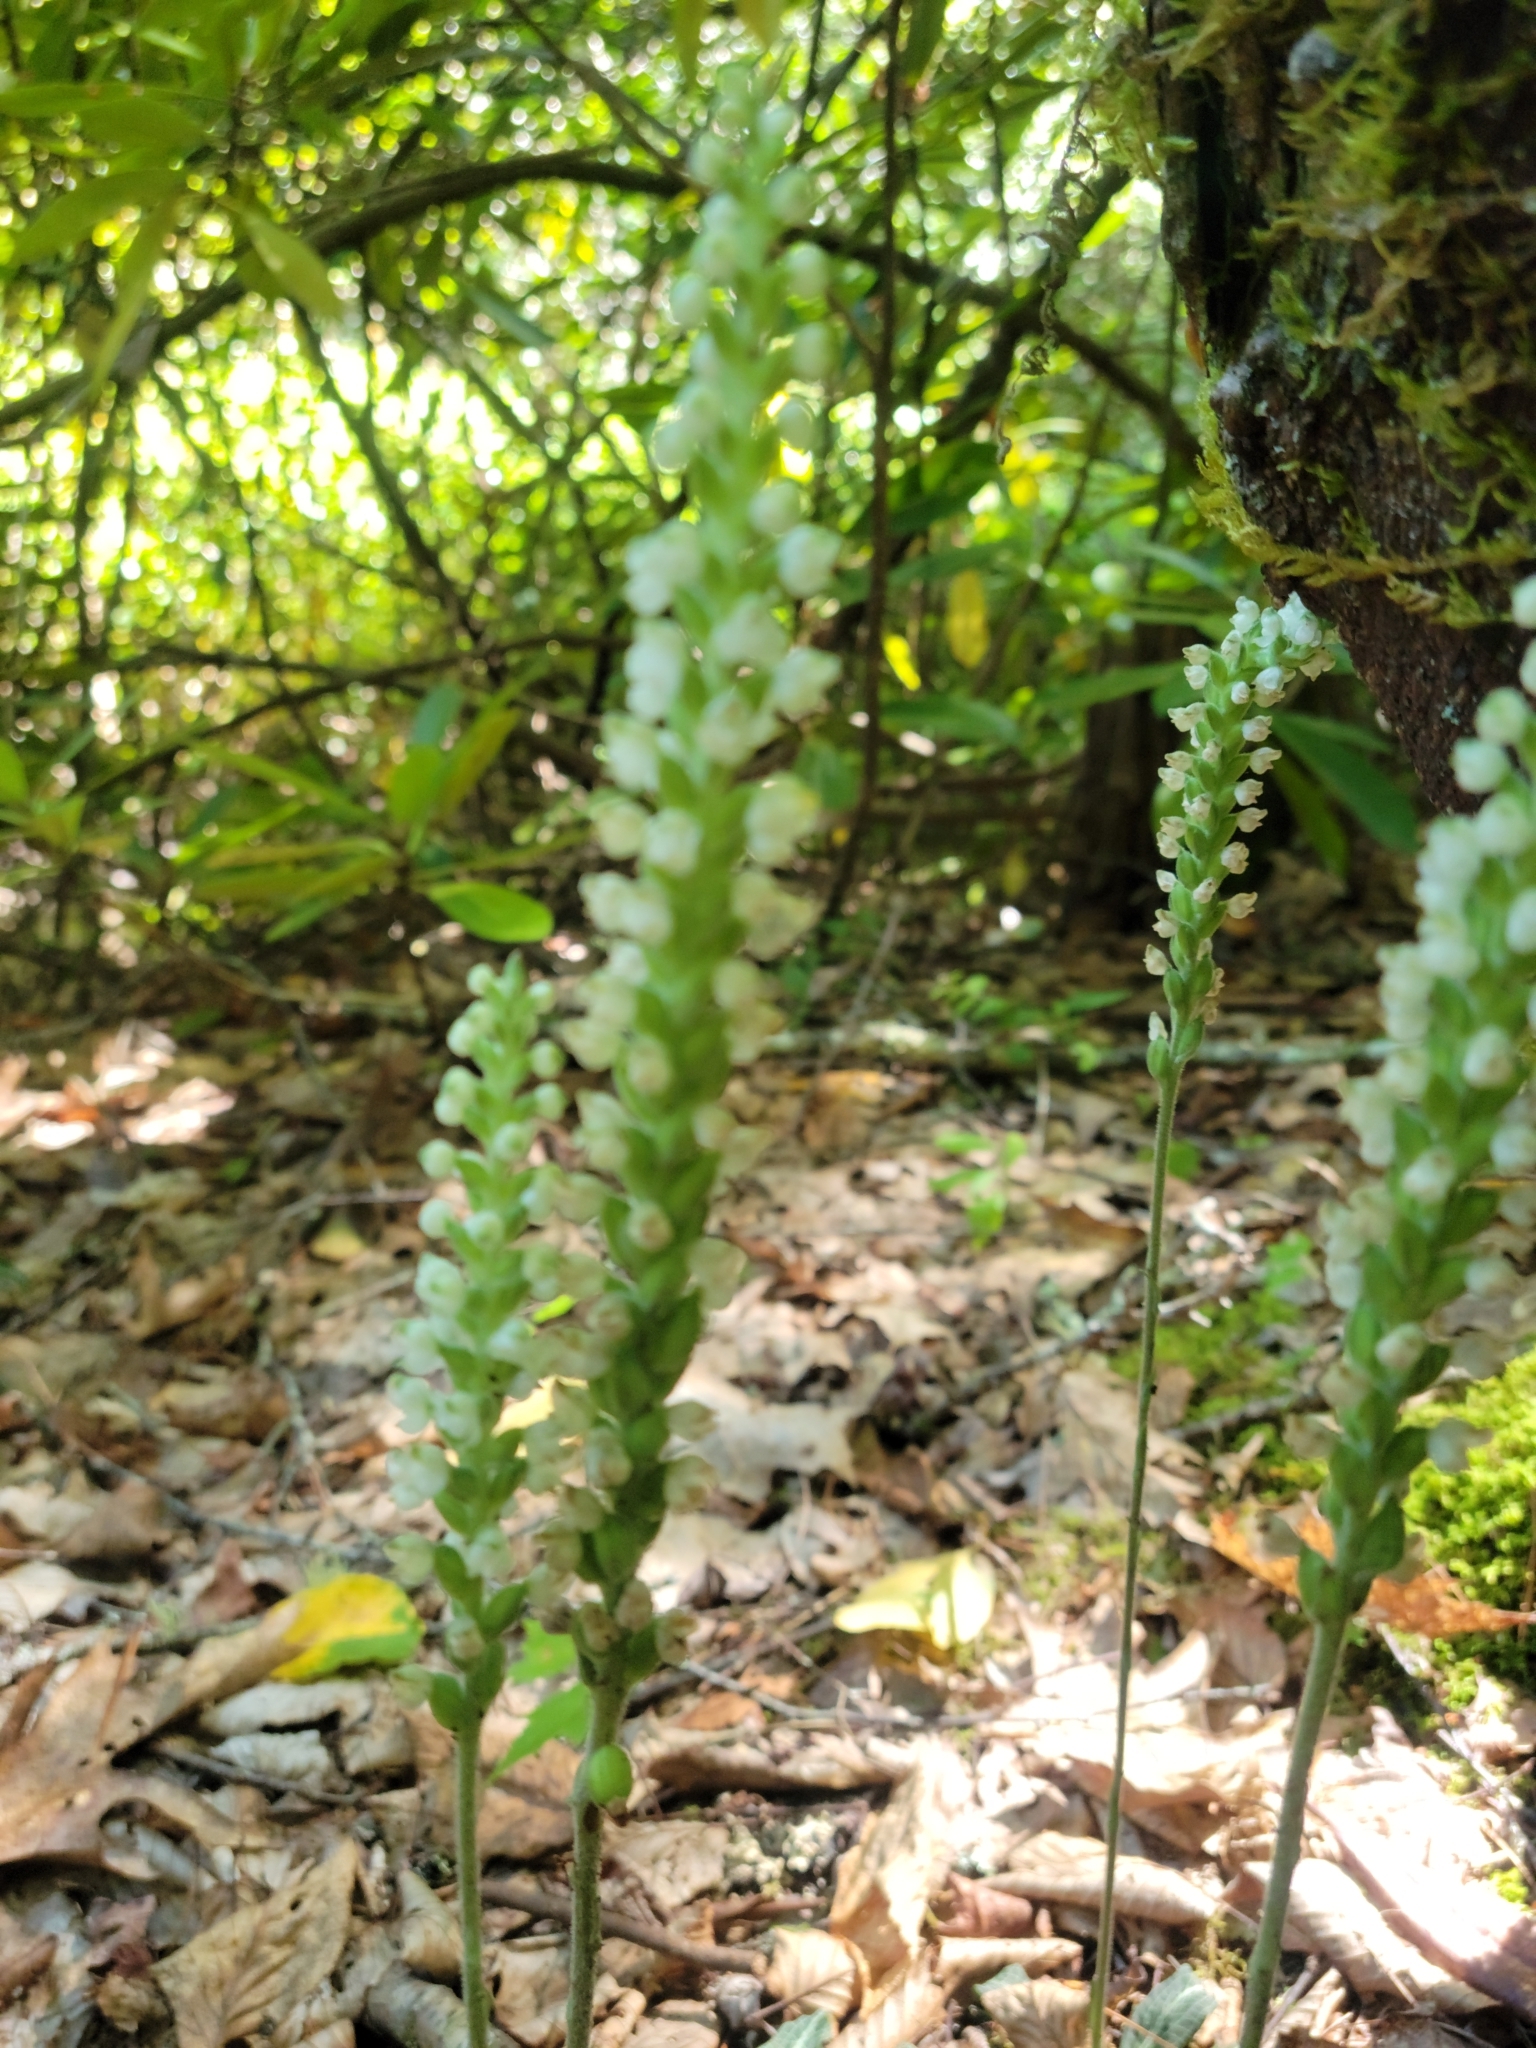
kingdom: Plantae
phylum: Tracheophyta
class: Liliopsida
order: Asparagales
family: Orchidaceae
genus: Goodyera
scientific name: Goodyera pubescens
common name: Downy rattlesnake-plantain
